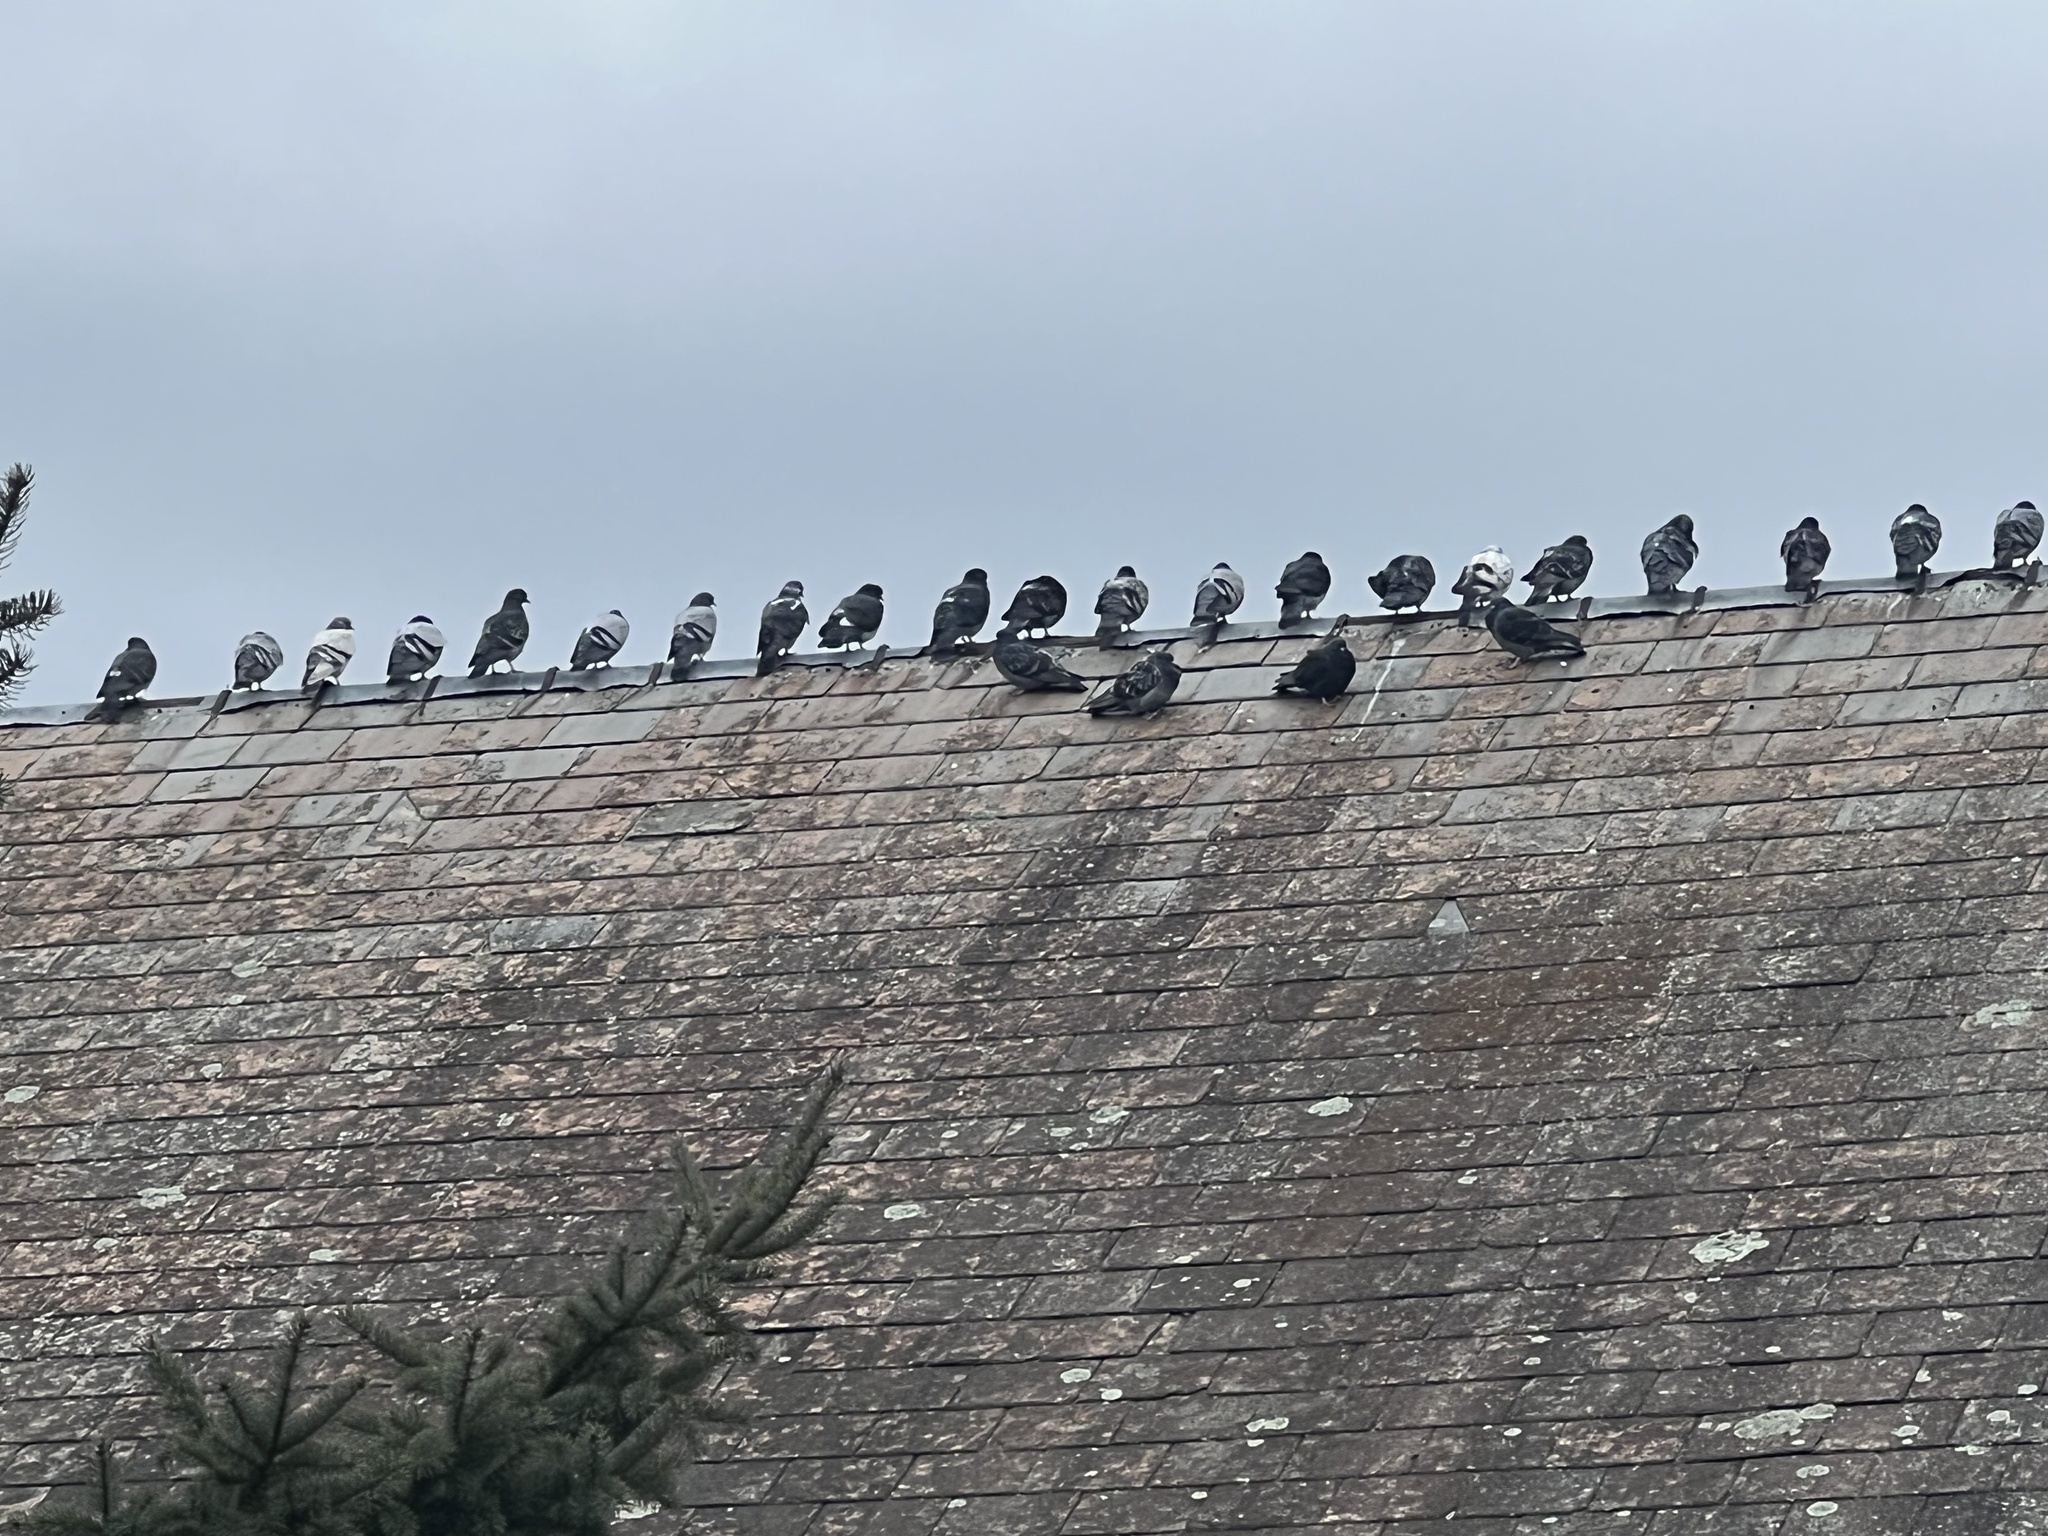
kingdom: Animalia
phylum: Chordata
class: Aves
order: Columbiformes
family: Columbidae
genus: Columba
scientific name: Columba livia
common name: Rock pigeon
